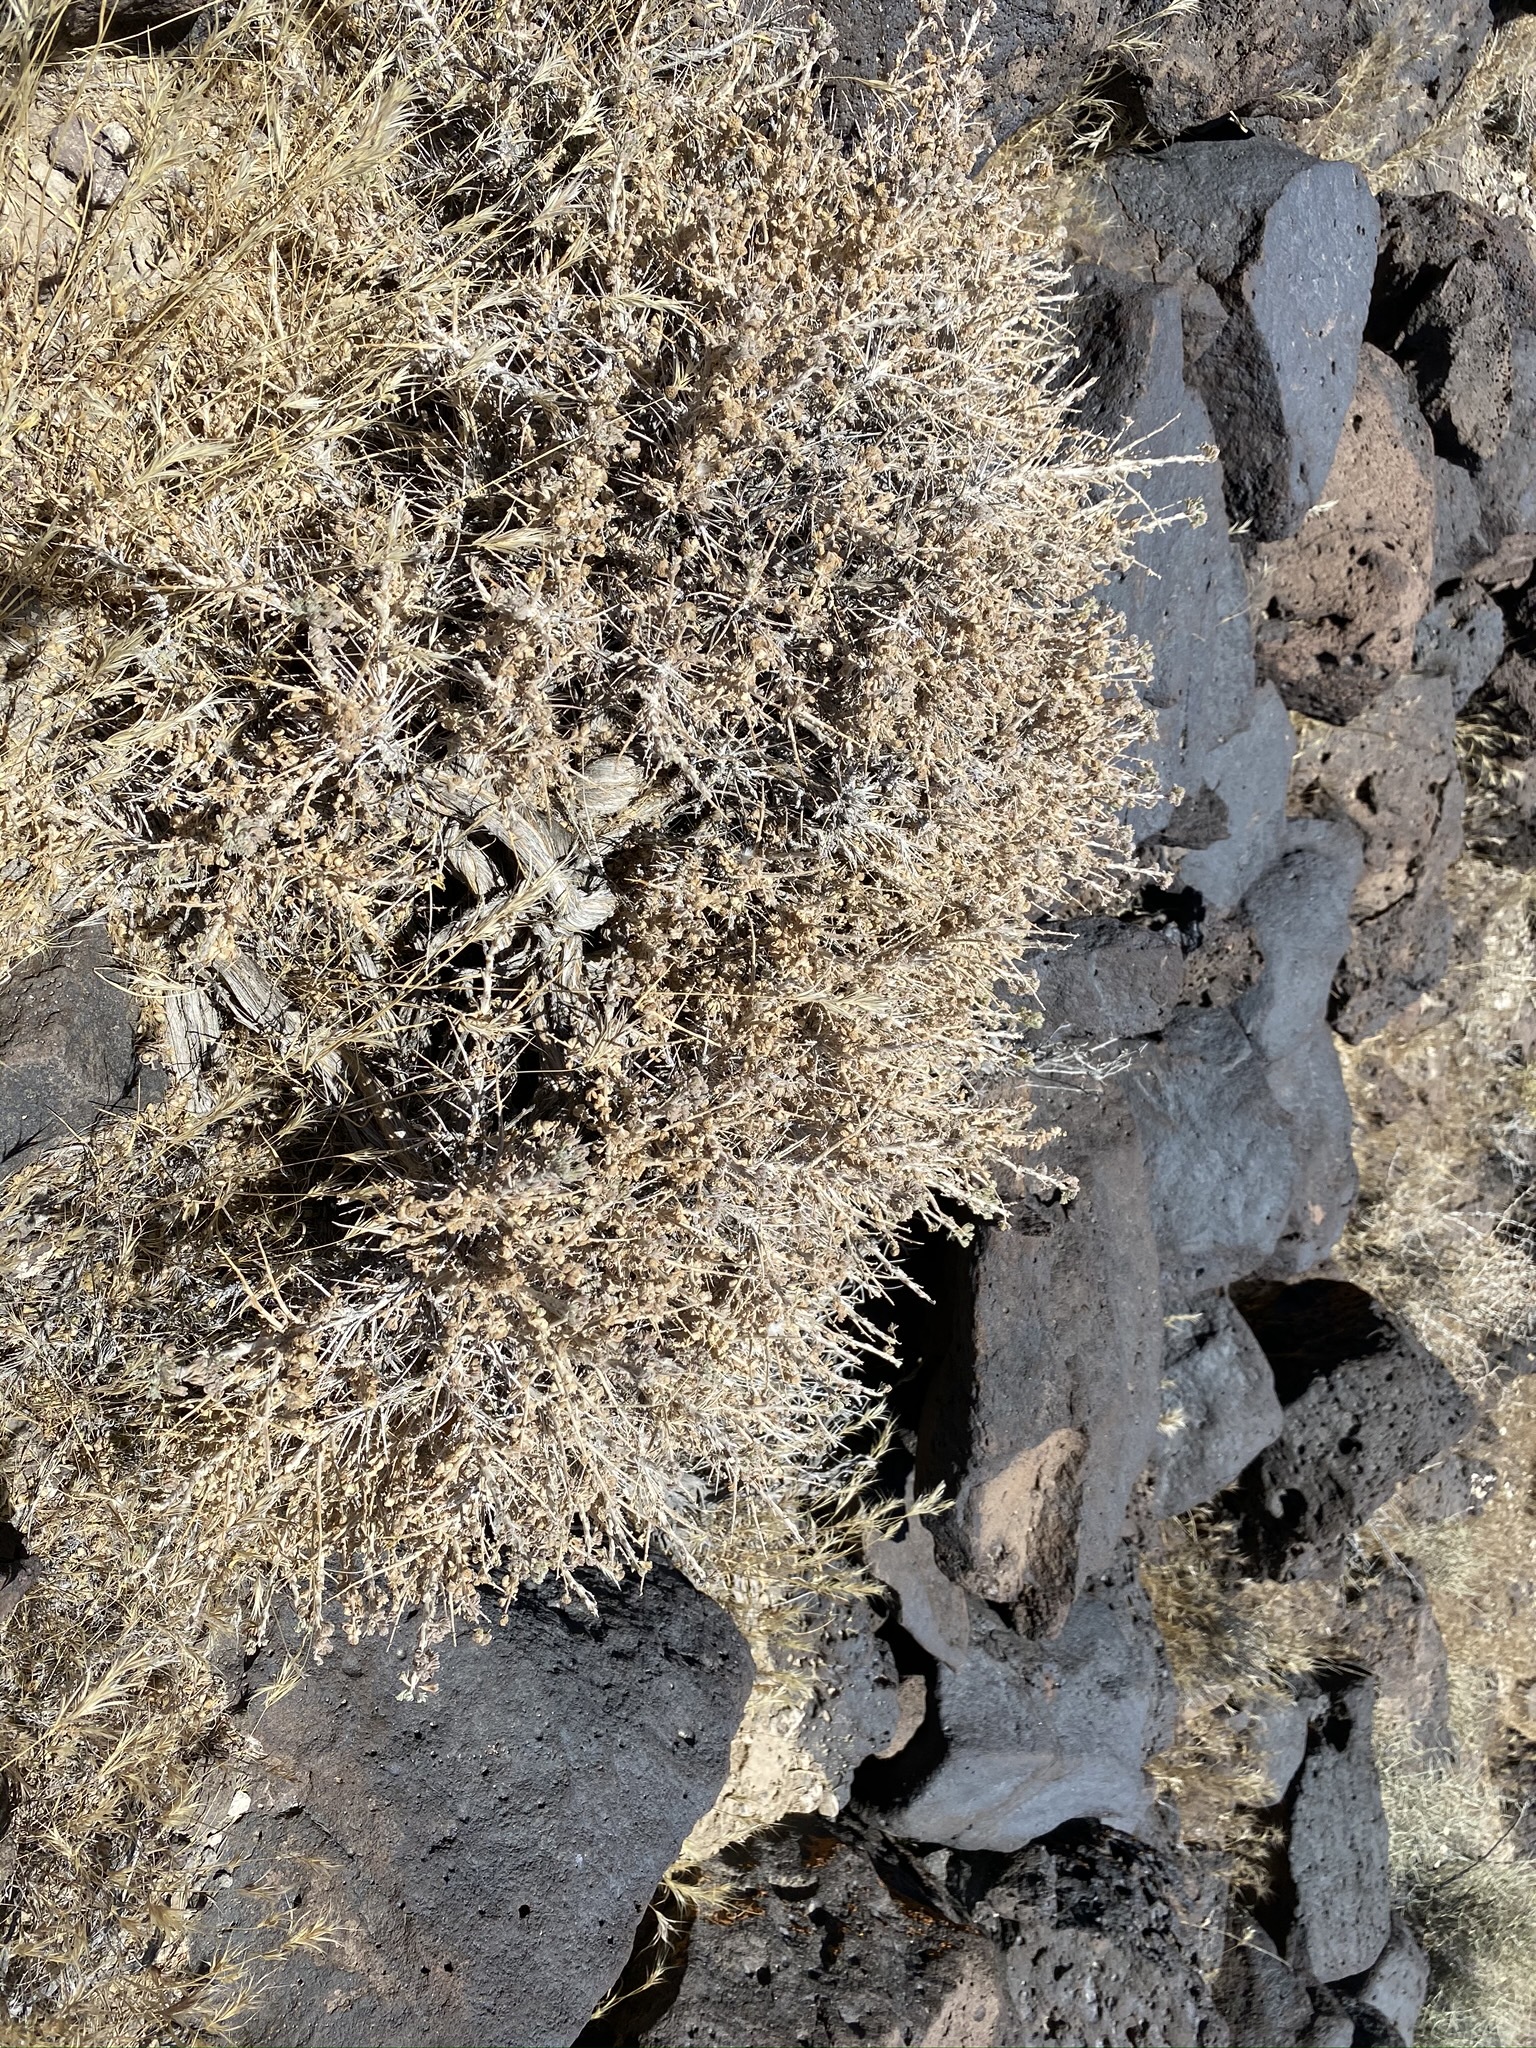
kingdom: Plantae
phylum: Tracheophyta
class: Magnoliopsida
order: Asterales
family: Asteraceae
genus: Artemisia
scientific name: Artemisia spinescens
